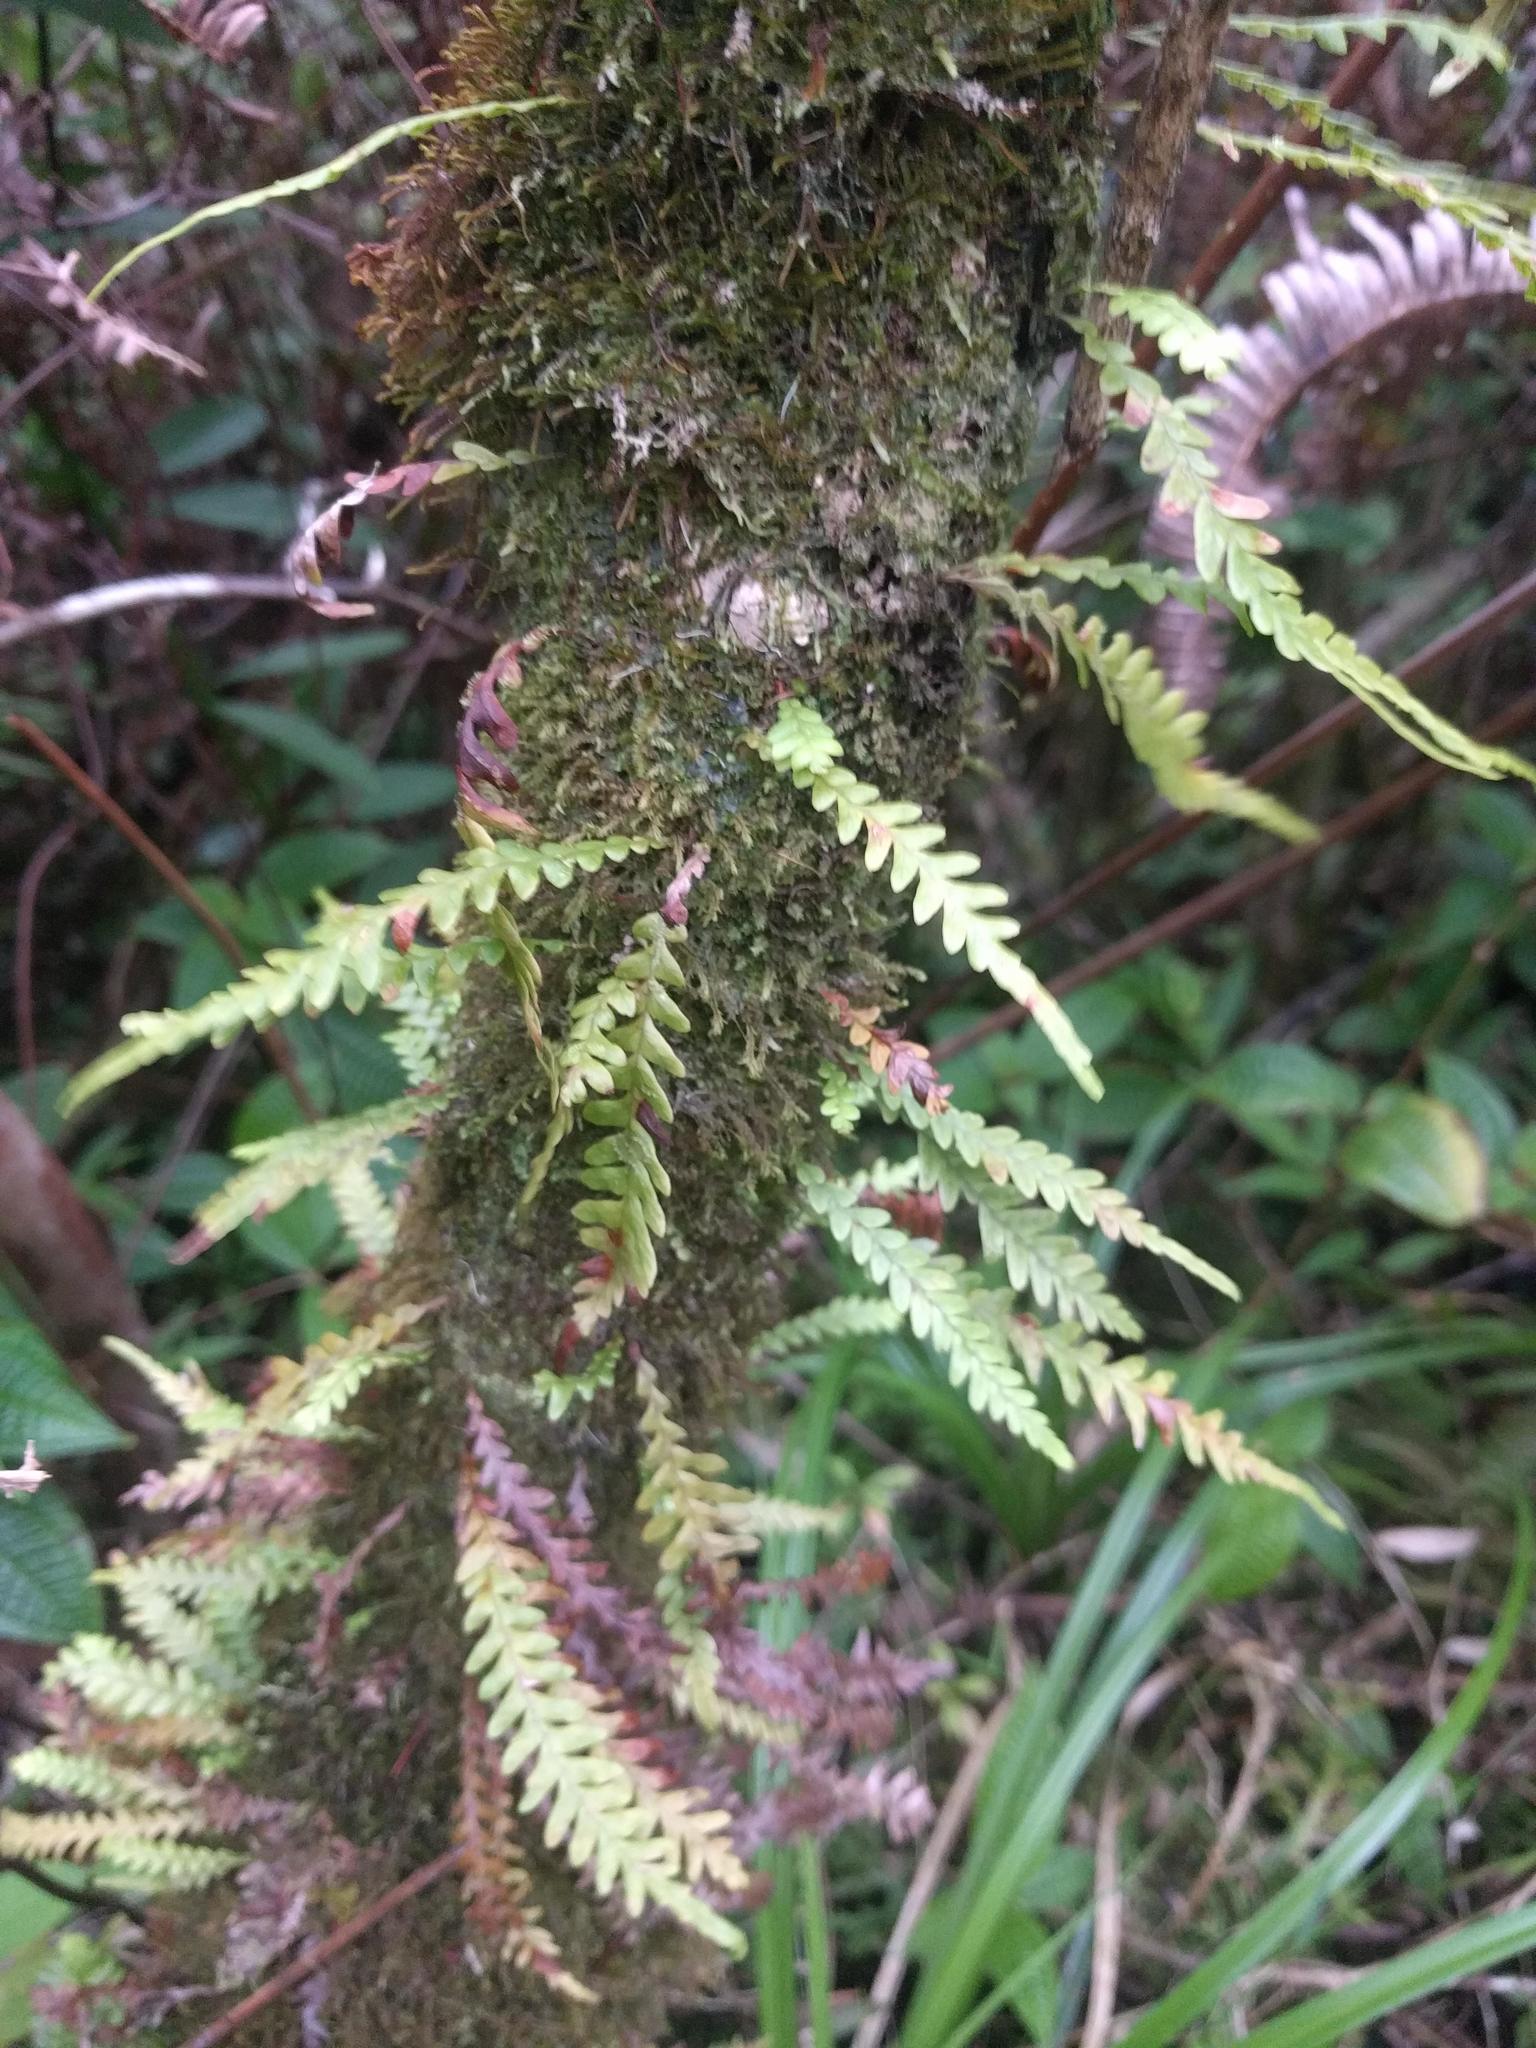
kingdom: Plantae
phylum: Tracheophyta
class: Polypodiopsida
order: Polypodiales
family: Polypodiaceae
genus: Adenophorus
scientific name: Adenophorus pinnatifidus
